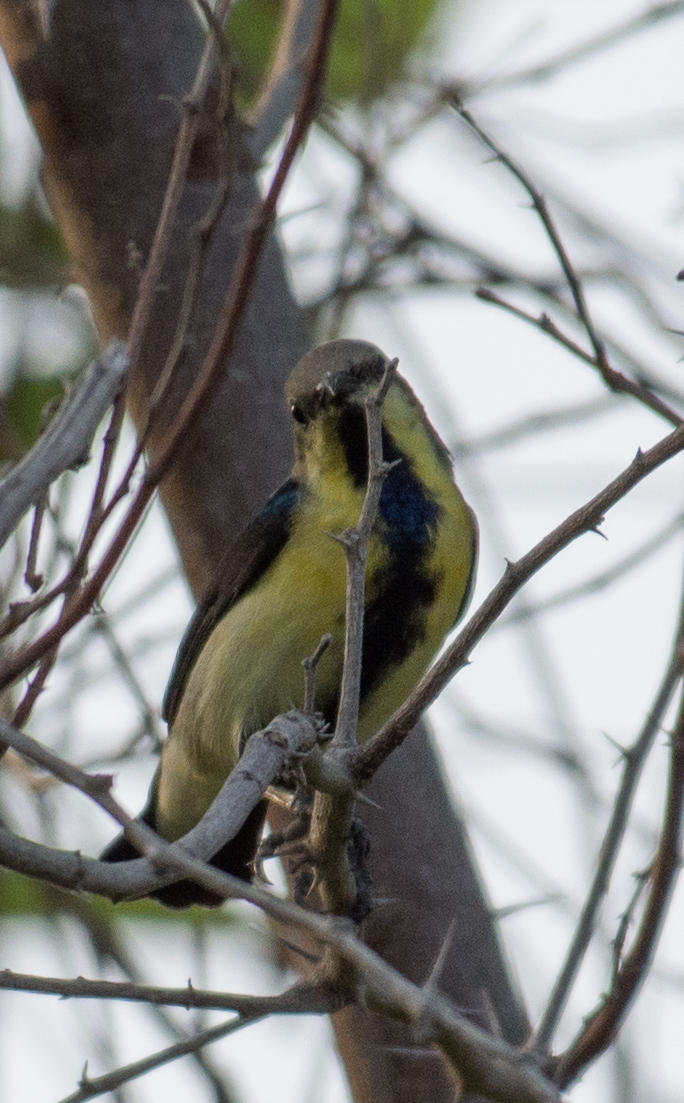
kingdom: Animalia
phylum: Chordata
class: Aves
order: Passeriformes
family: Nectariniidae
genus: Cinnyris
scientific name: Cinnyris asiaticus
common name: Purple sunbird
